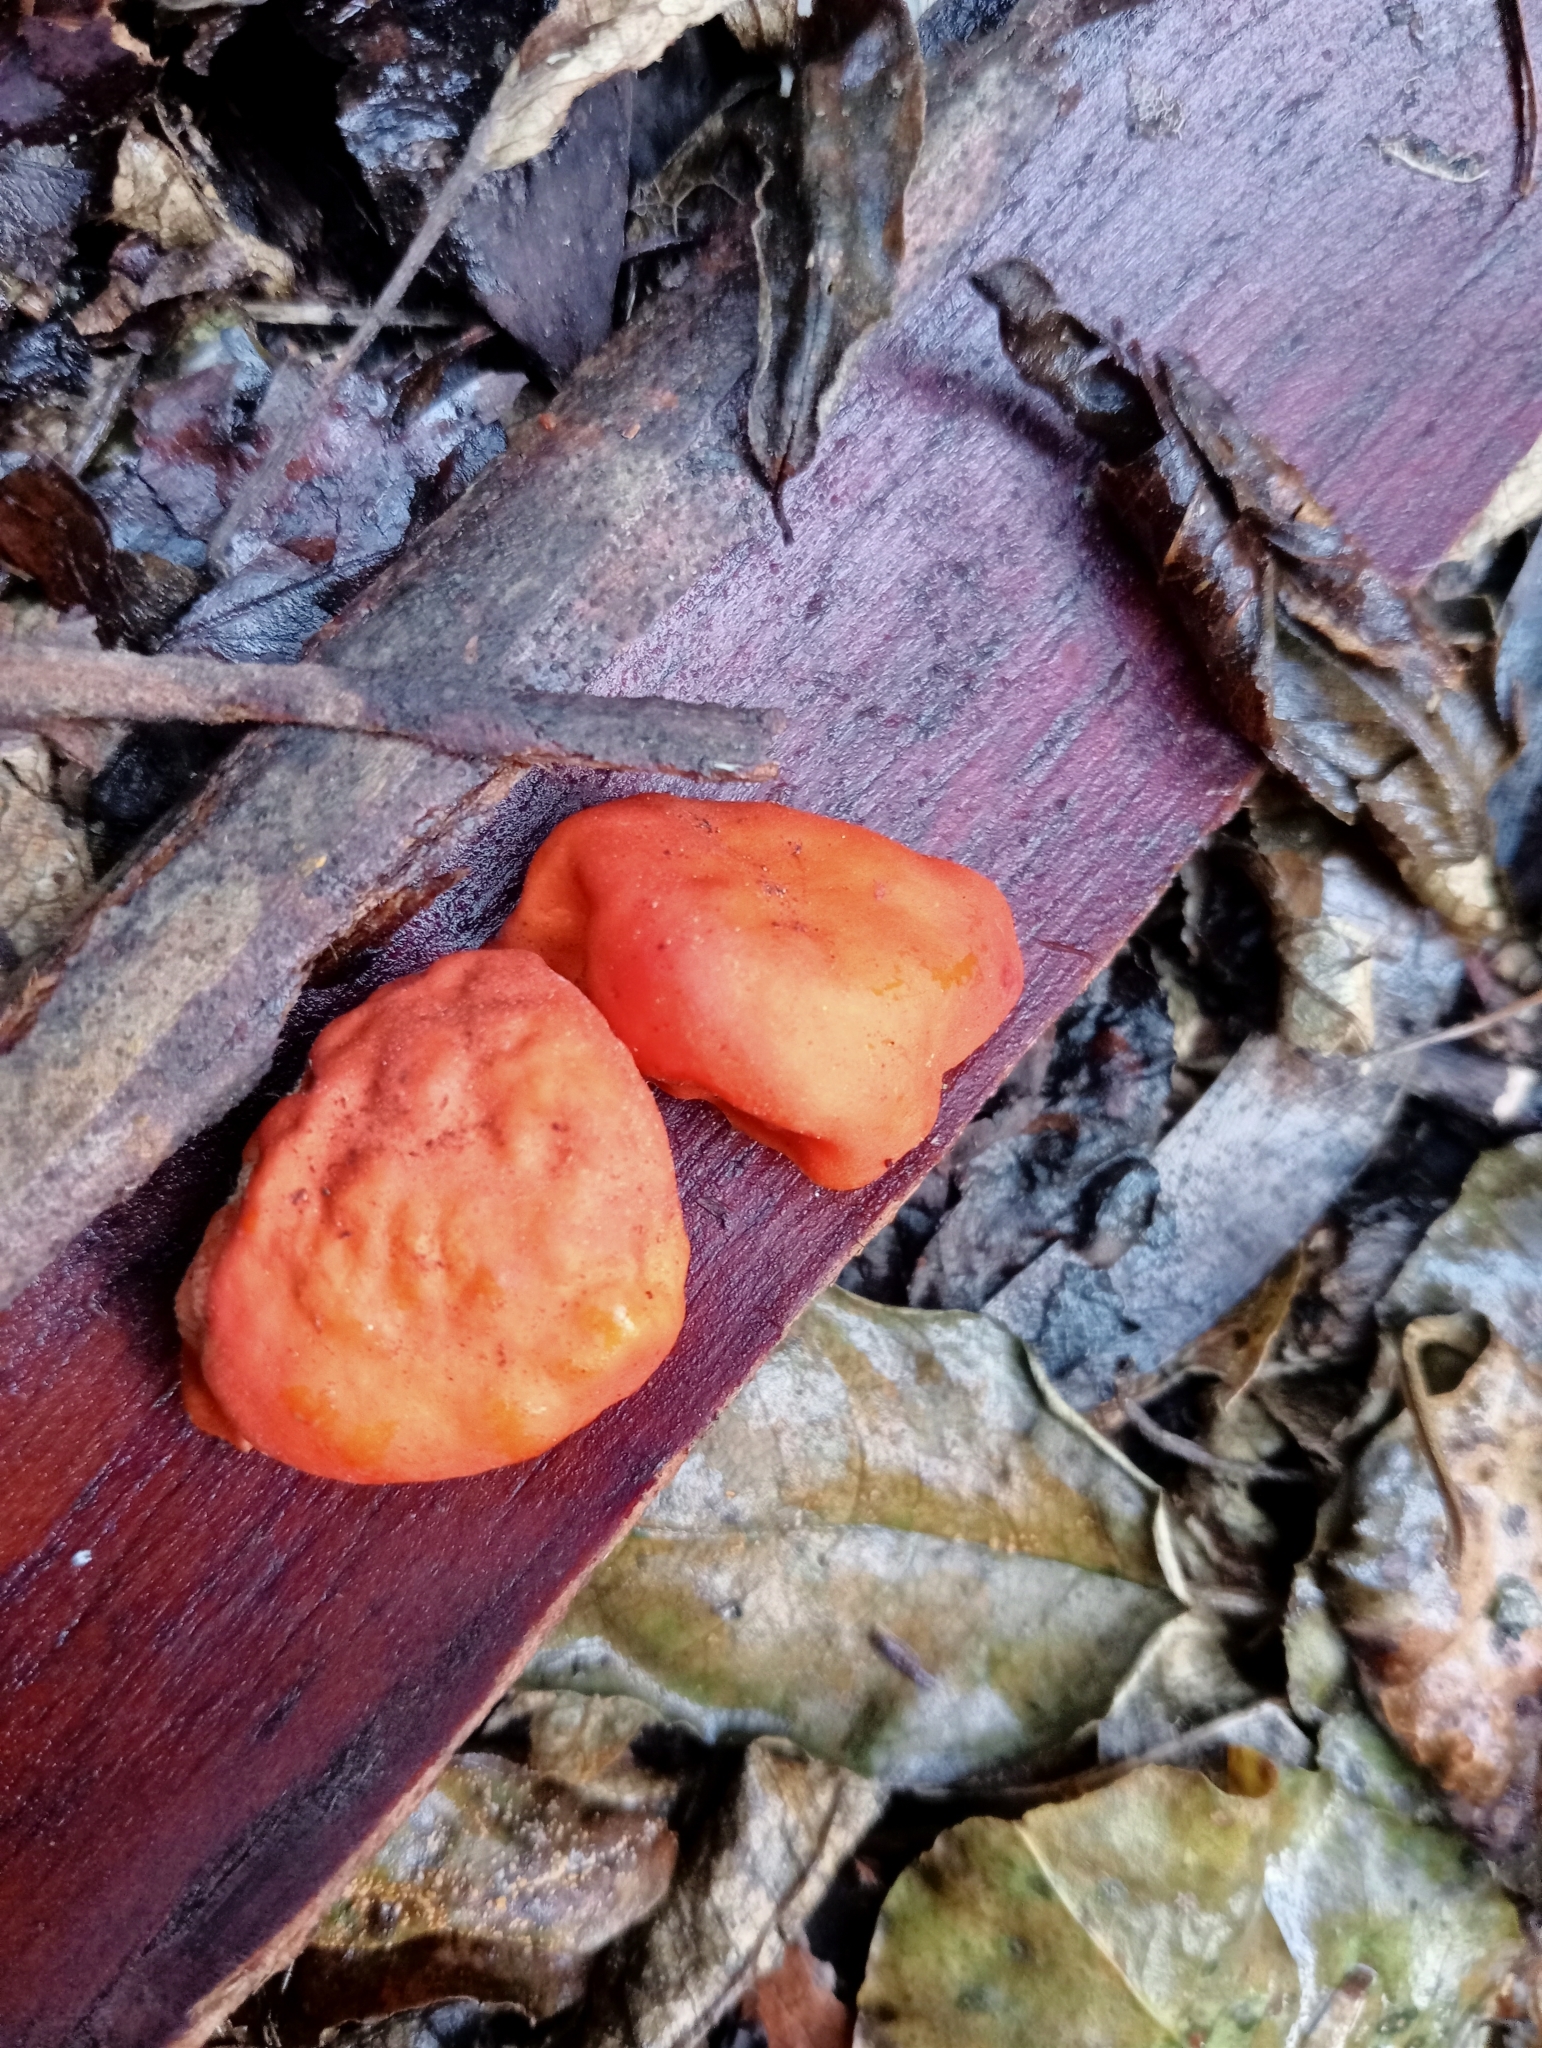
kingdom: Fungi
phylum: Ascomycota
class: Pezizomycetes
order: Pezizales
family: Pyronemataceae
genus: Paurocotylis
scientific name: Paurocotylis pila
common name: Scarlet berry truffle
